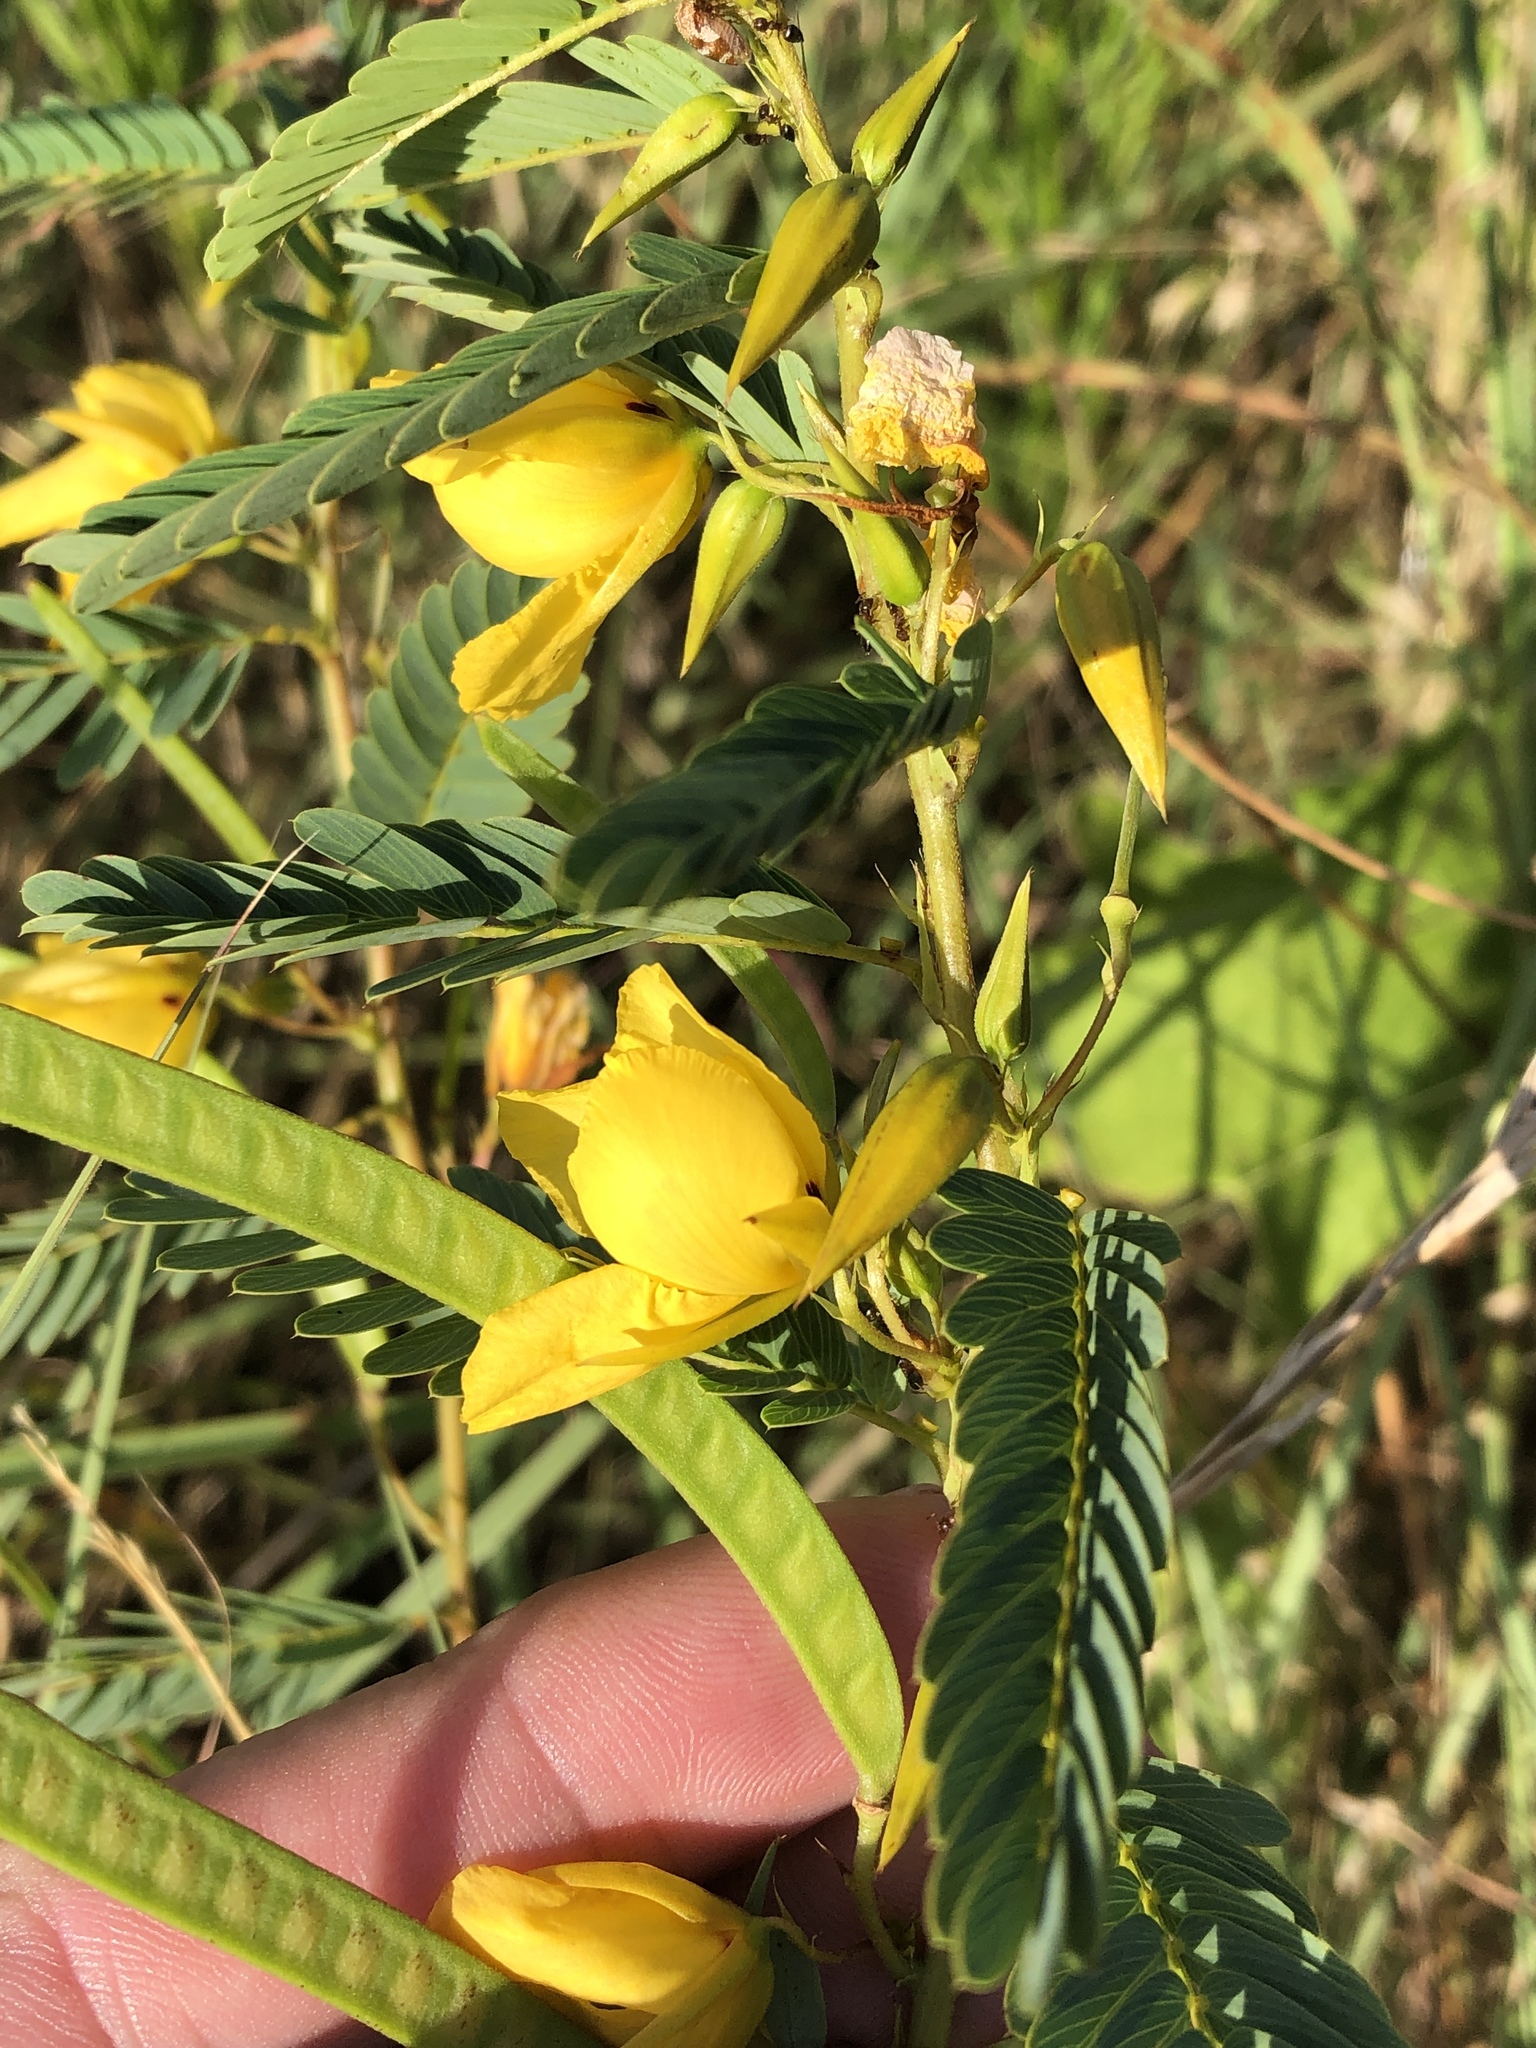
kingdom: Plantae
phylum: Tracheophyta
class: Magnoliopsida
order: Fabales
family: Fabaceae
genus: Chamaecrista
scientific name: Chamaecrista fasciculata
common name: Golden cassia
